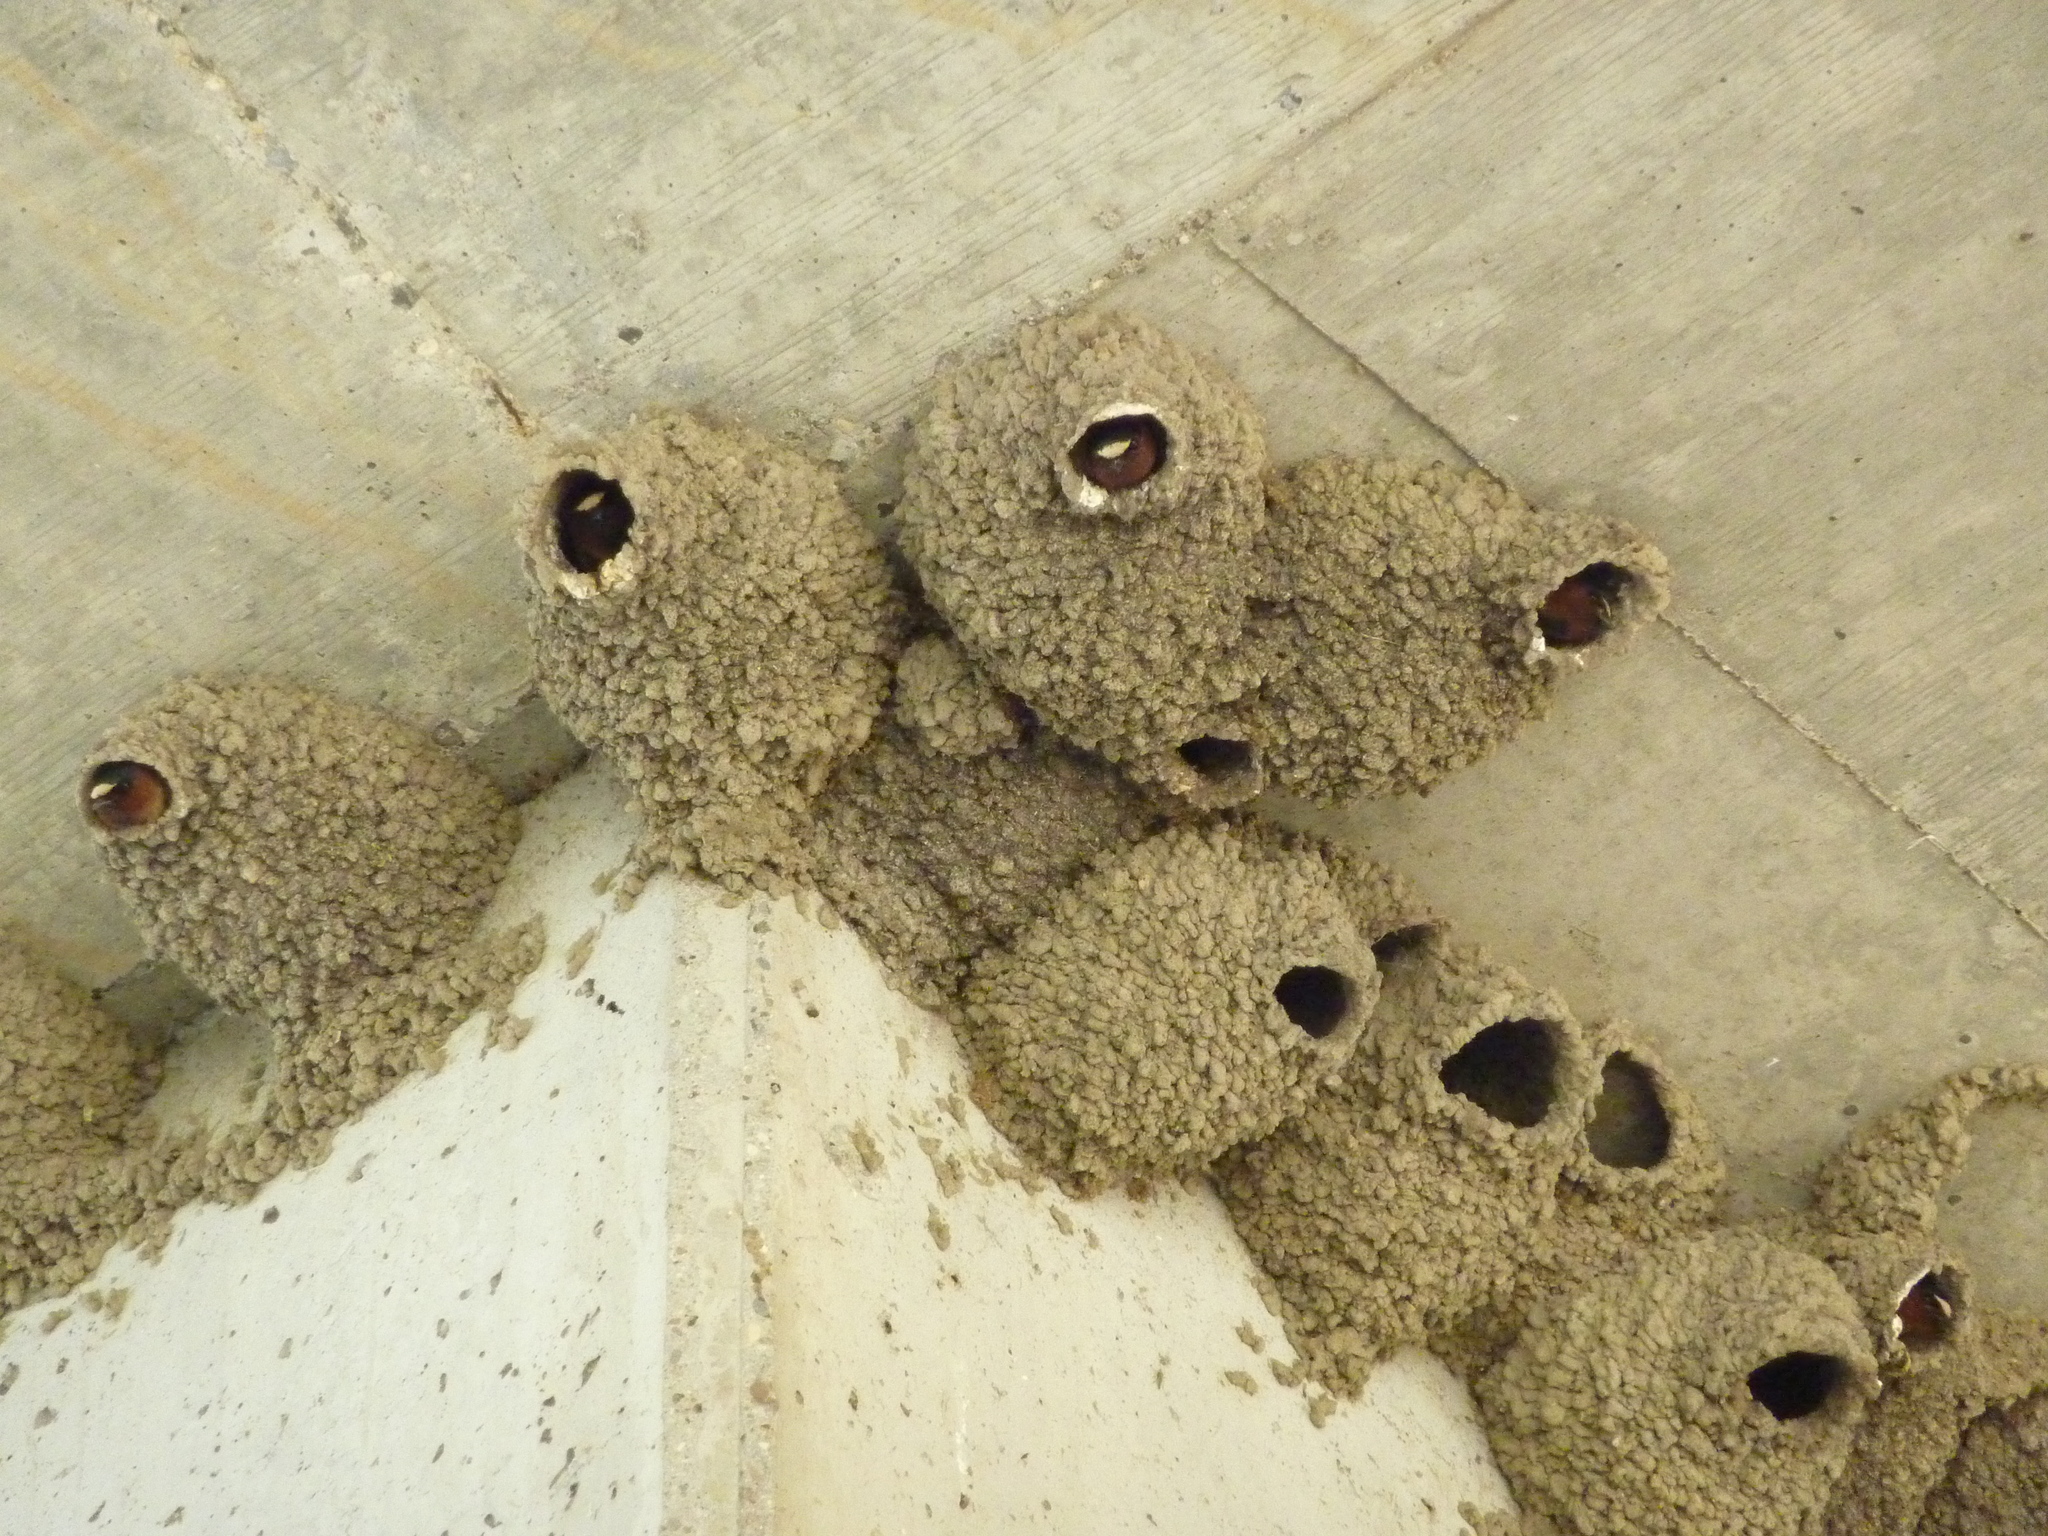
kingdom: Animalia
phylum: Chordata
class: Aves
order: Passeriformes
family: Hirundinidae
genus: Petrochelidon
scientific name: Petrochelidon pyrrhonota
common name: American cliff swallow
